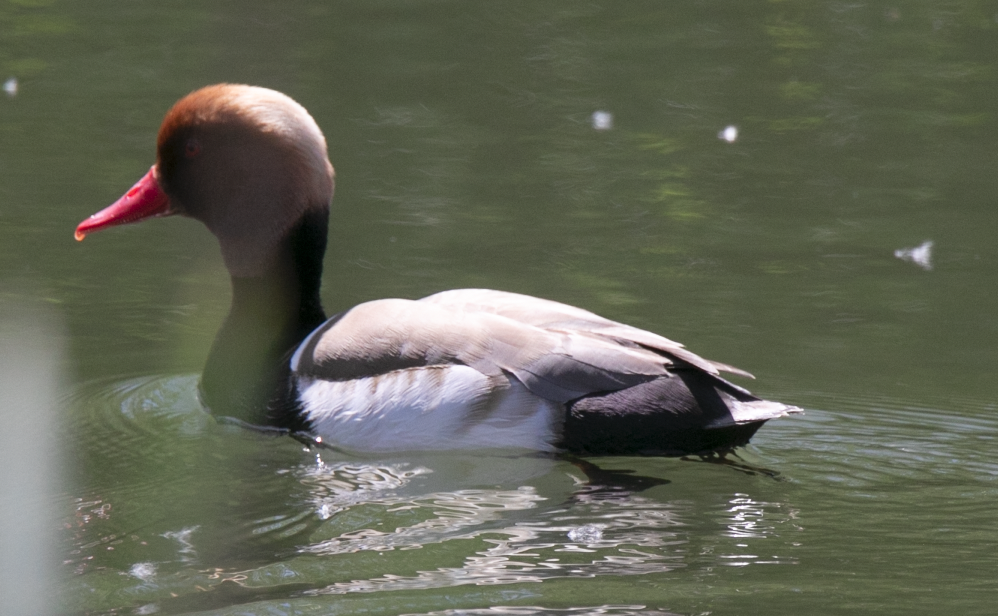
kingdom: Animalia
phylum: Chordata
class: Aves
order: Anseriformes
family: Anatidae
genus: Netta
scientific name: Netta rufina
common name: Red-crested pochard
